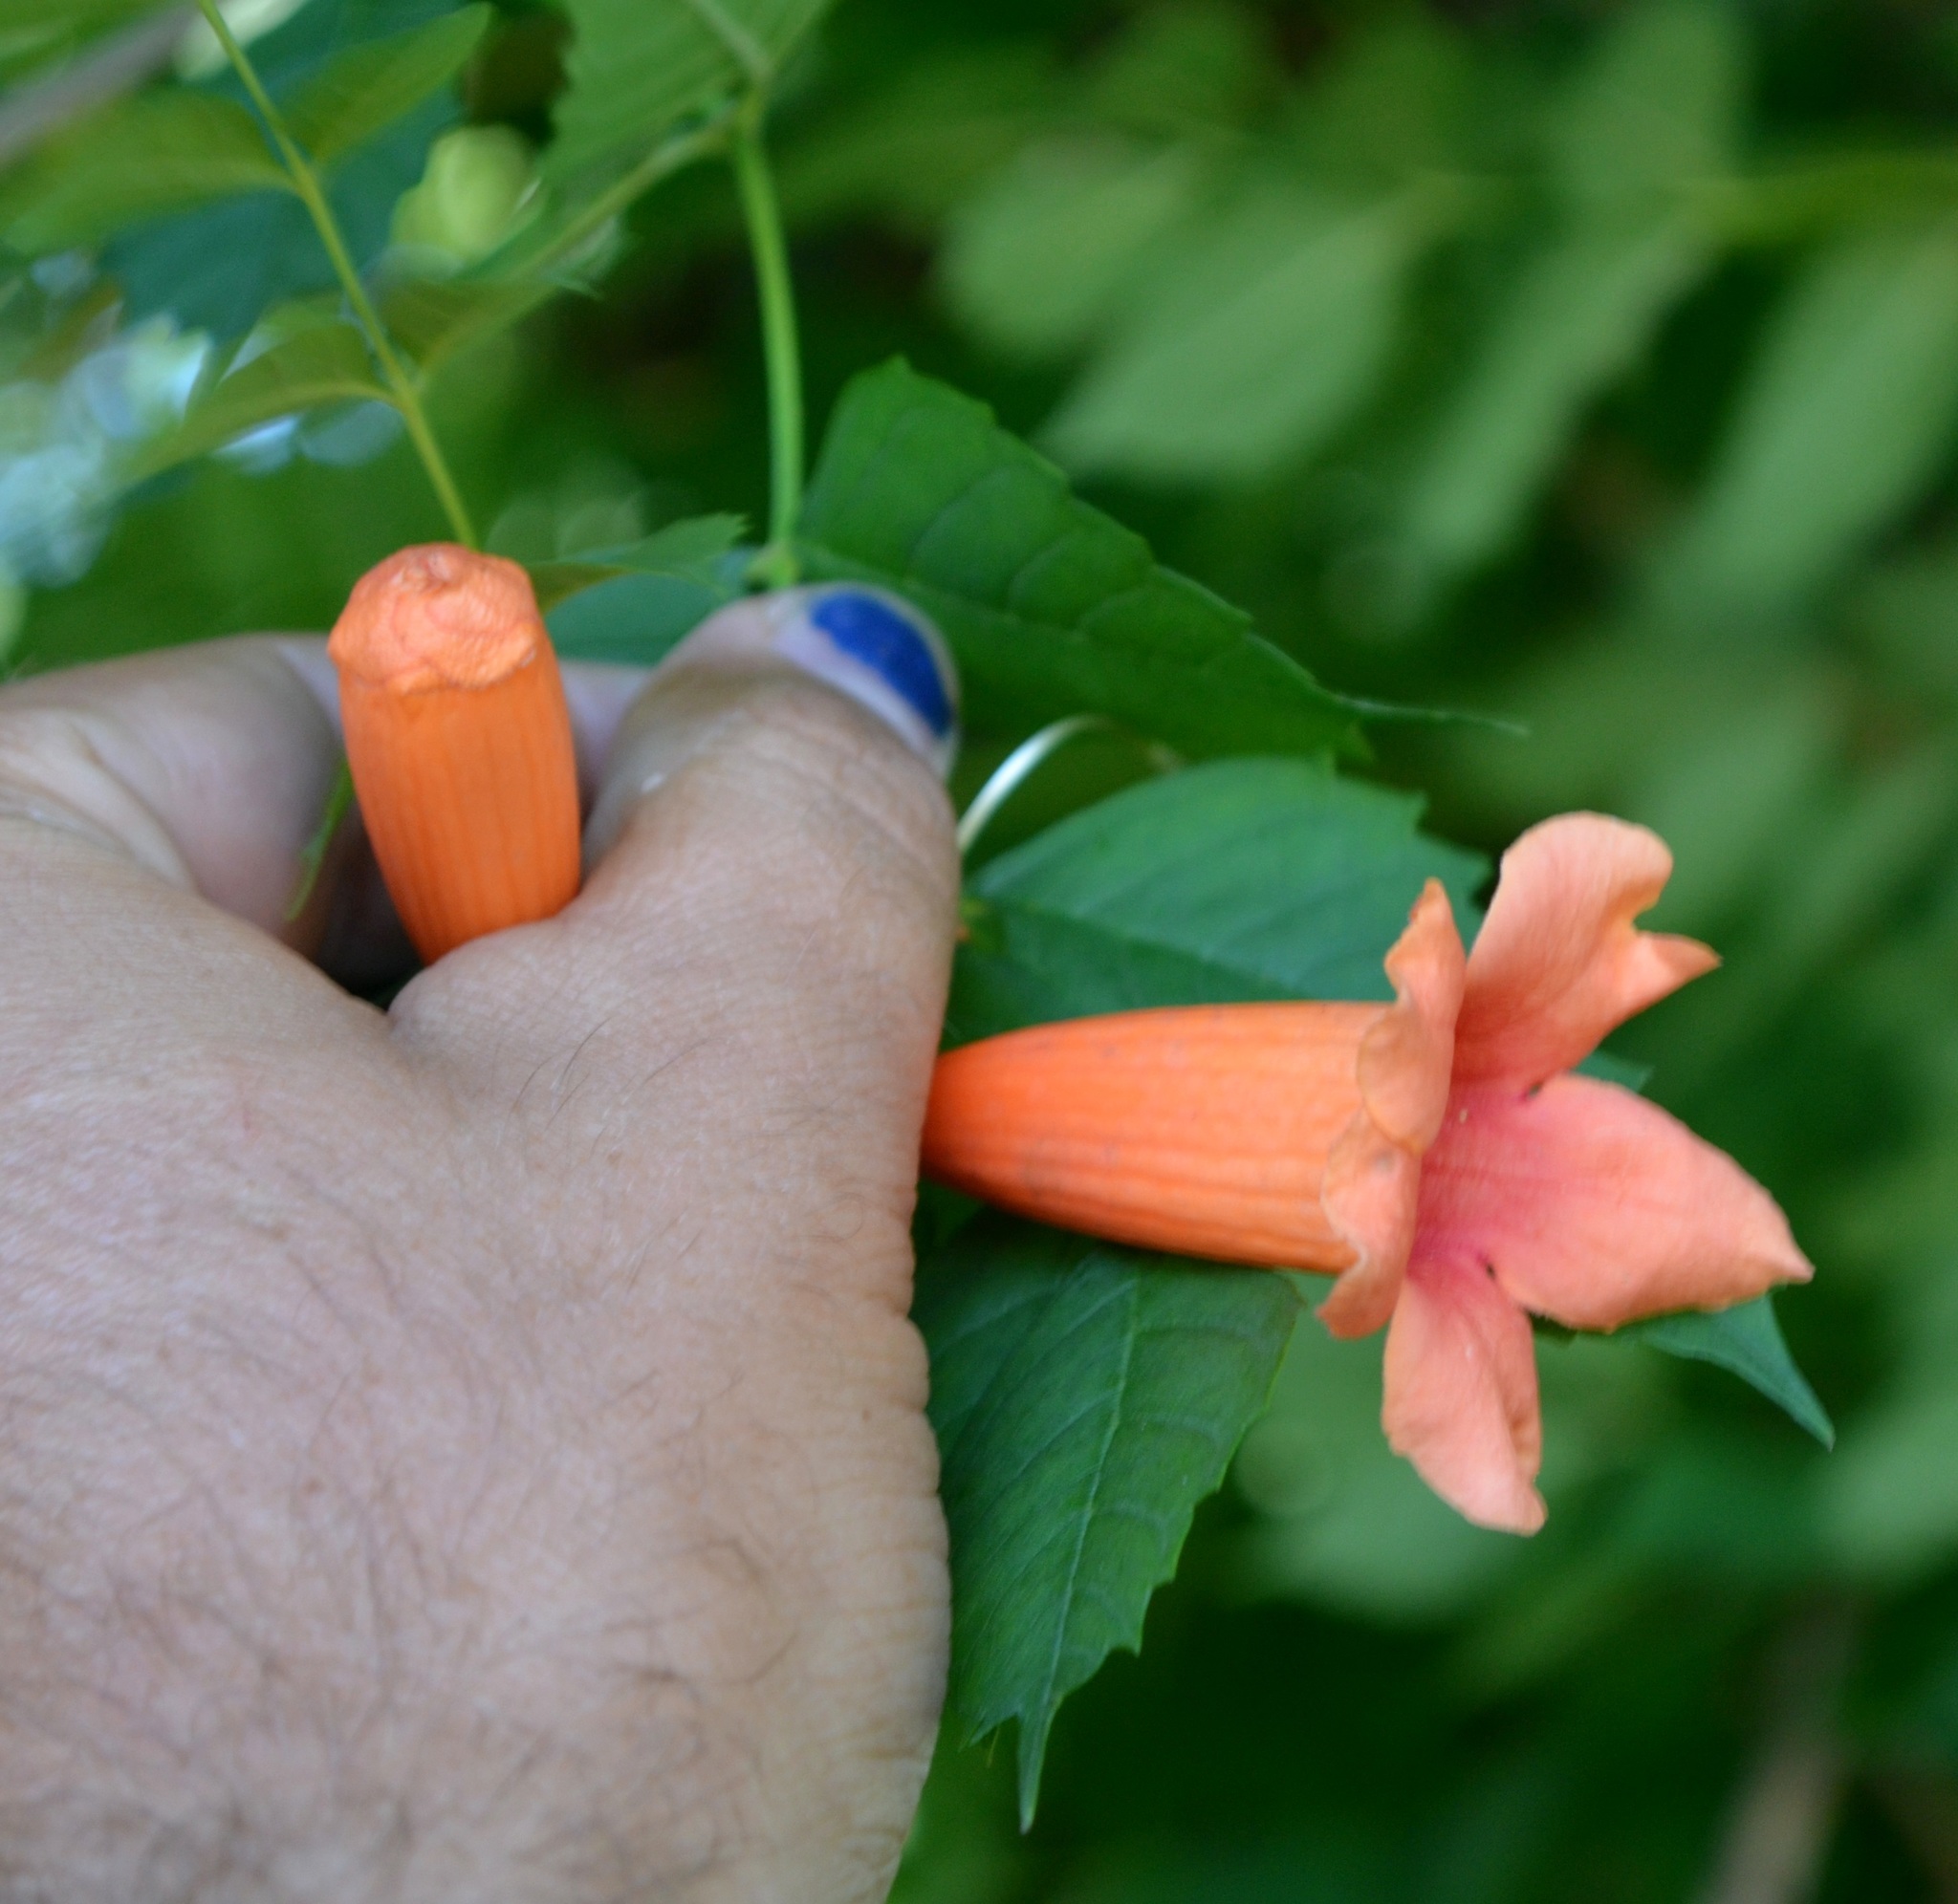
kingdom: Plantae
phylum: Tracheophyta
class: Magnoliopsida
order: Lamiales
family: Bignoniaceae
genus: Campsis
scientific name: Campsis radicans
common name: Trumpet-creeper
